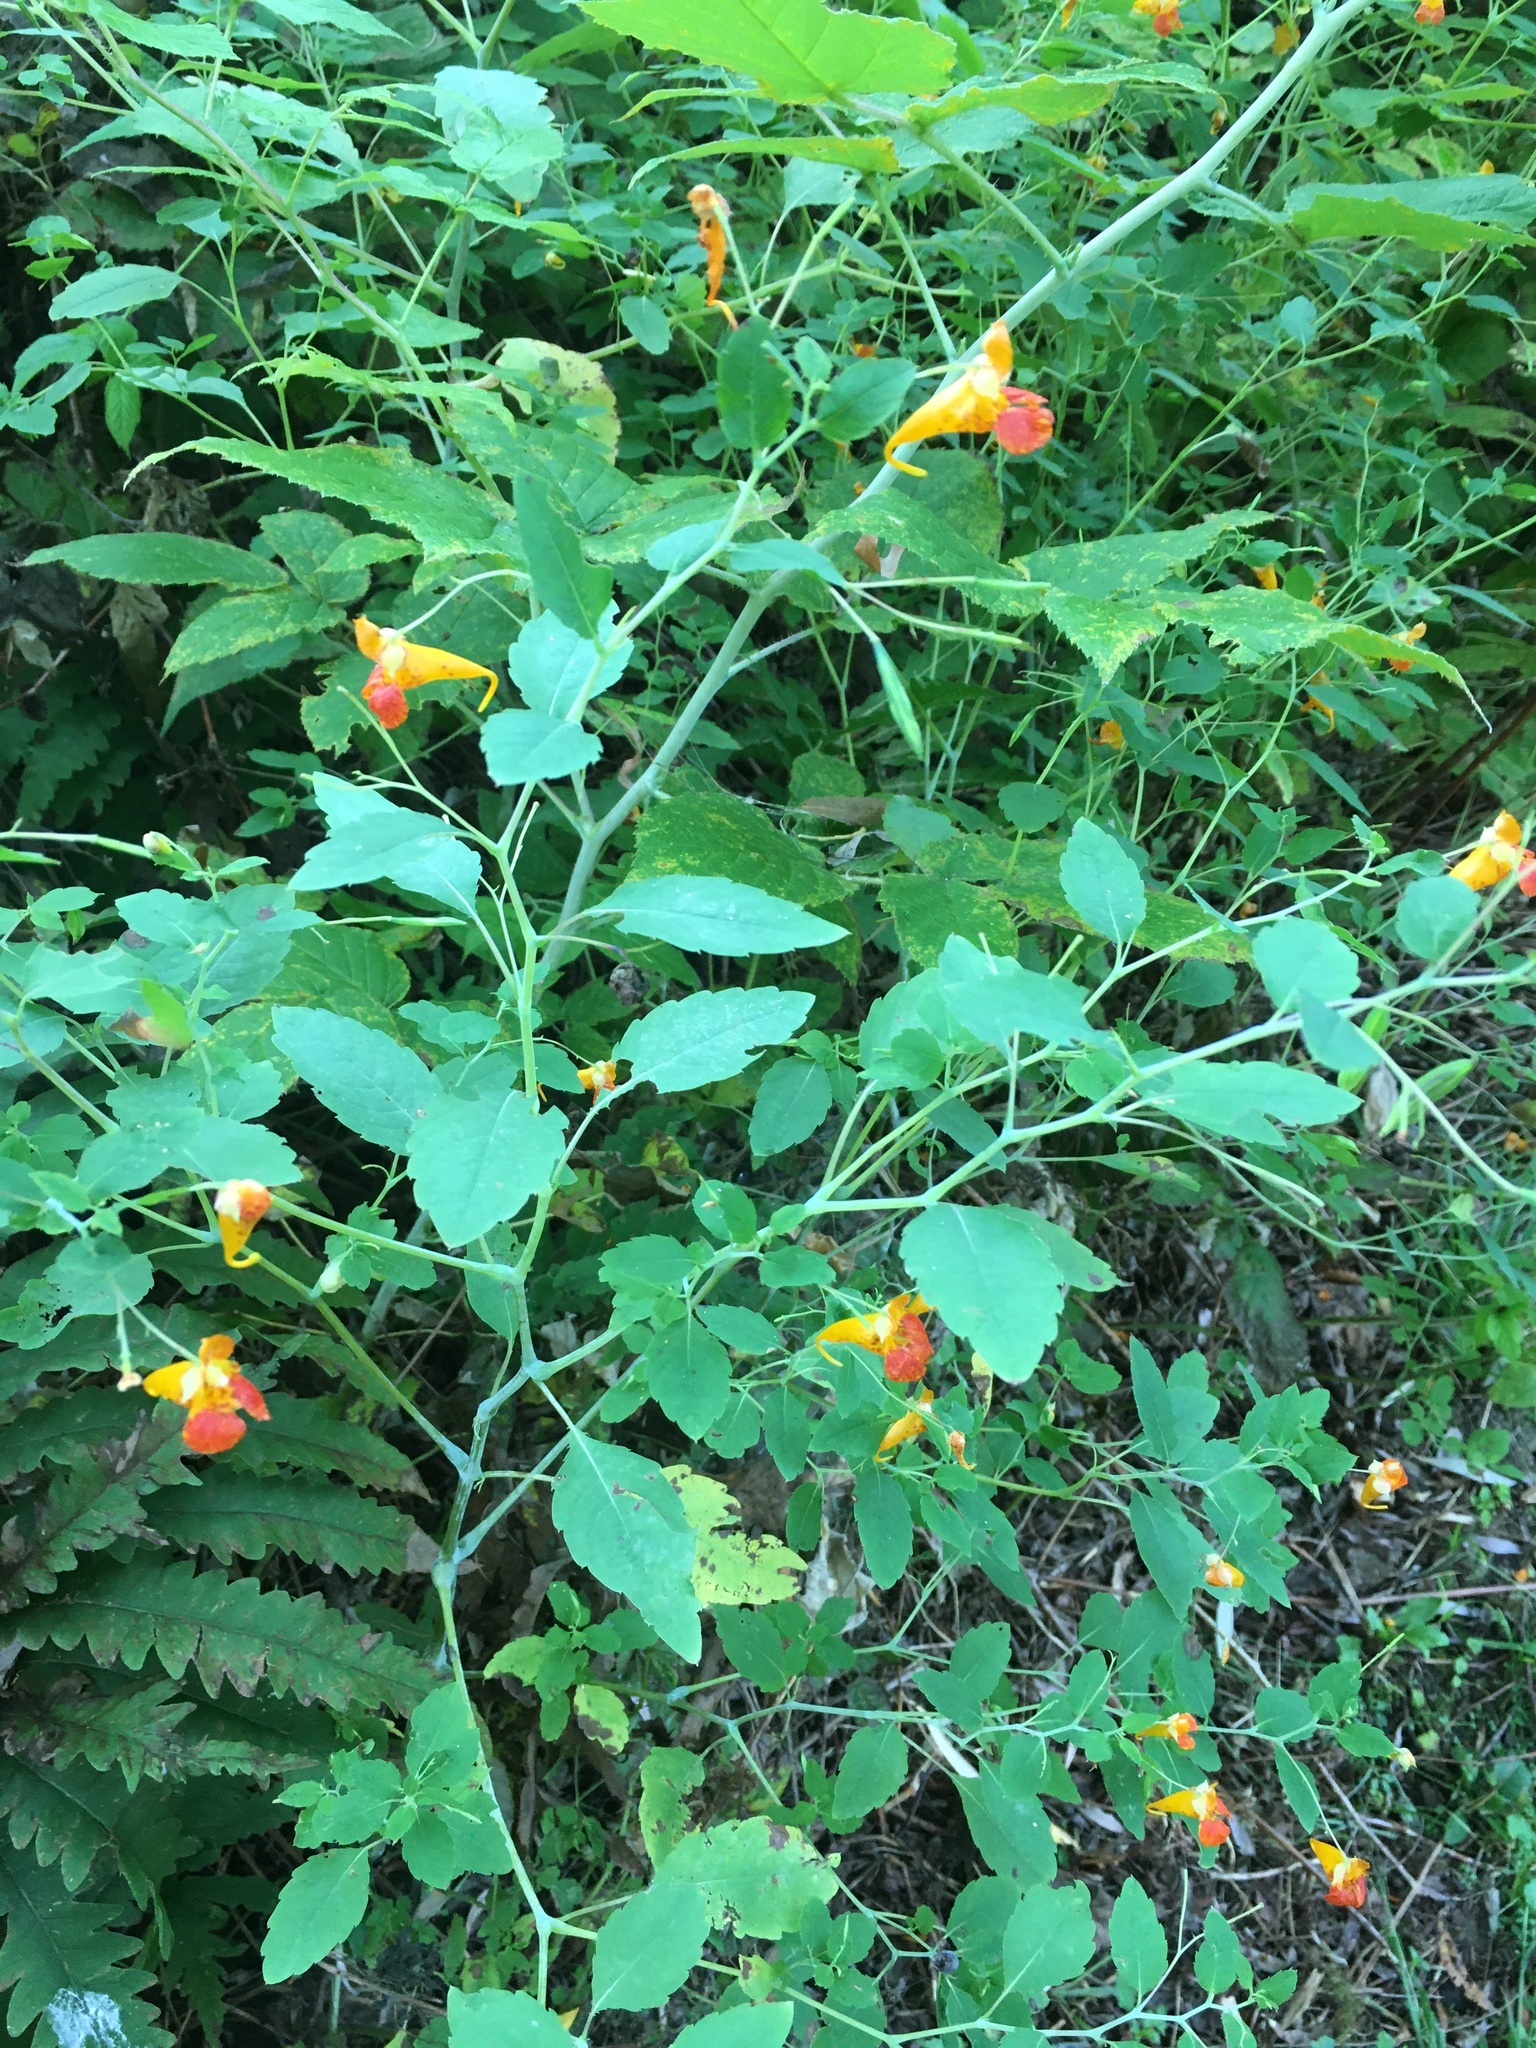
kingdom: Plantae
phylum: Tracheophyta
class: Magnoliopsida
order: Ericales
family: Balsaminaceae
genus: Impatiens
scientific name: Impatiens capensis
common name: Orange balsam
